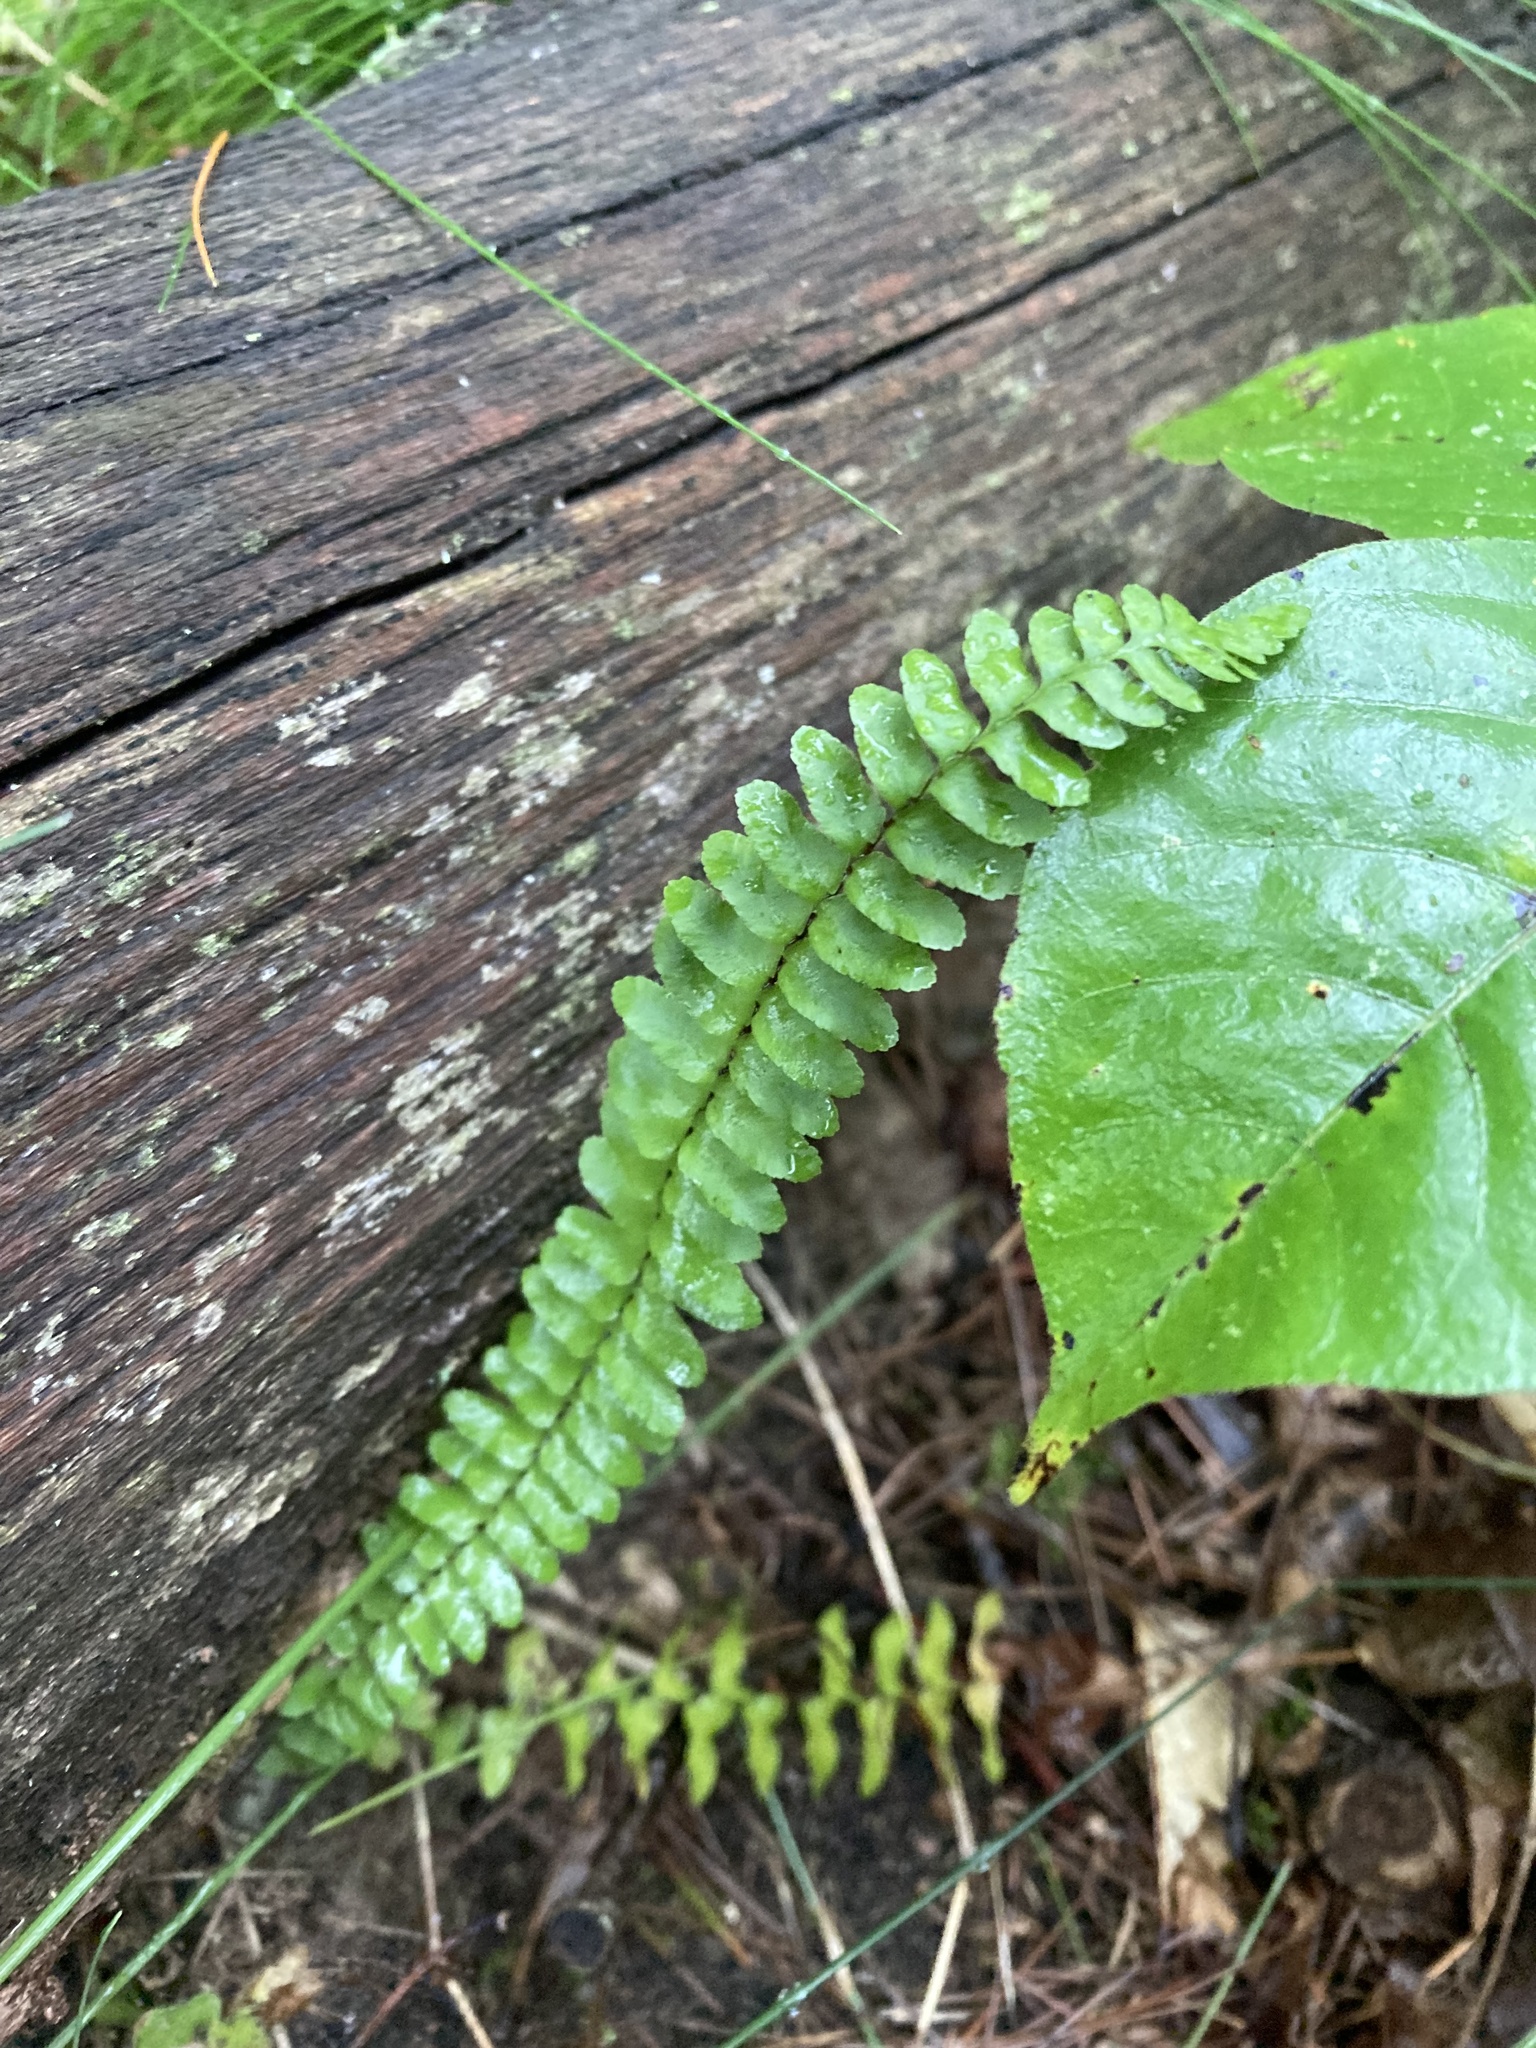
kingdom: Plantae
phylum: Tracheophyta
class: Polypodiopsida
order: Polypodiales
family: Aspleniaceae
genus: Asplenium
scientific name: Asplenium platyneuron
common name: Ebony spleenwort
